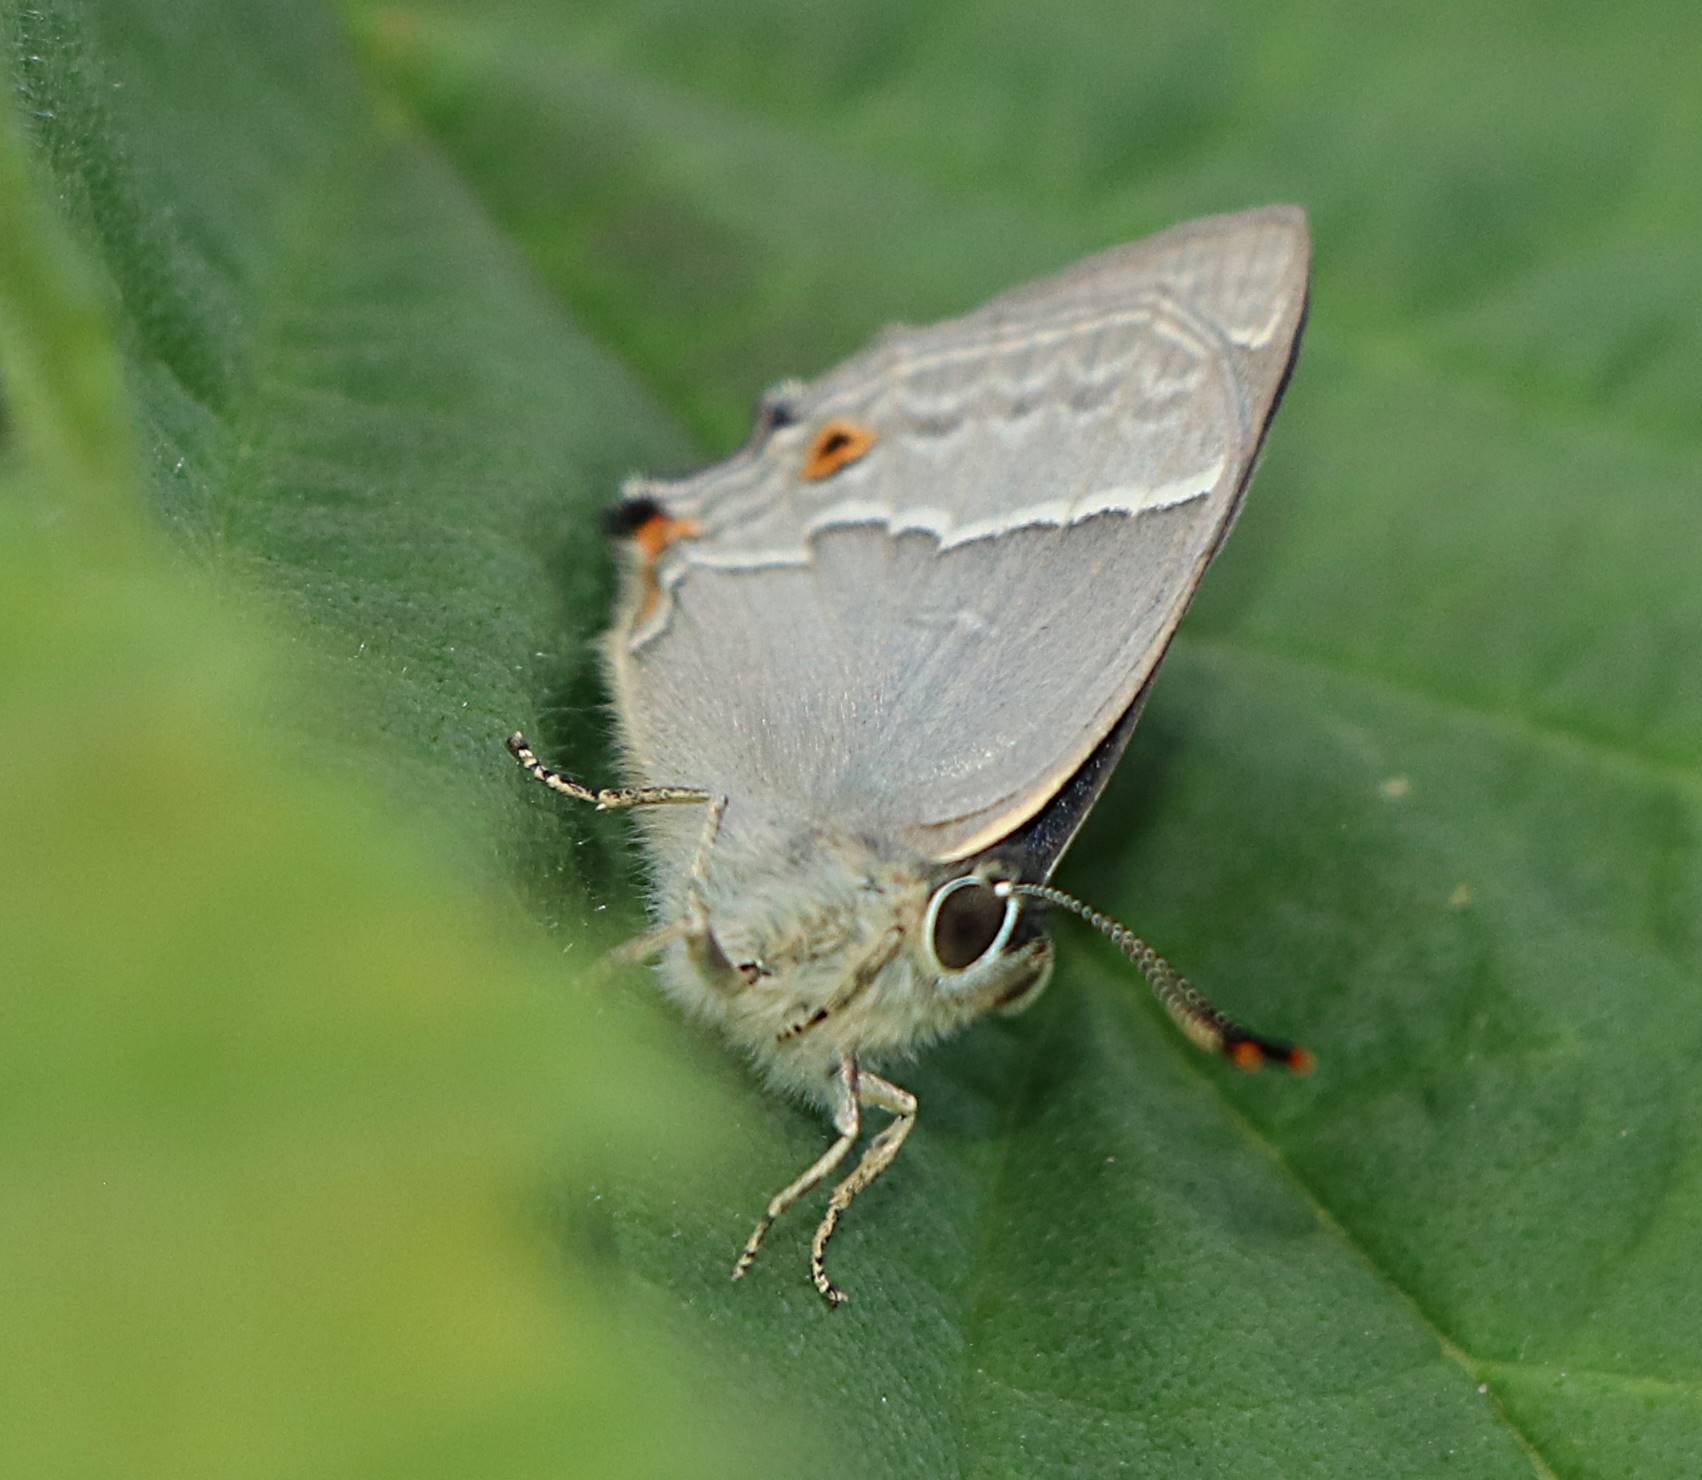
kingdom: Animalia
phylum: Arthropoda
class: Insecta
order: Lepidoptera
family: Lycaenidae
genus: Quercusia
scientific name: Quercusia quercus
